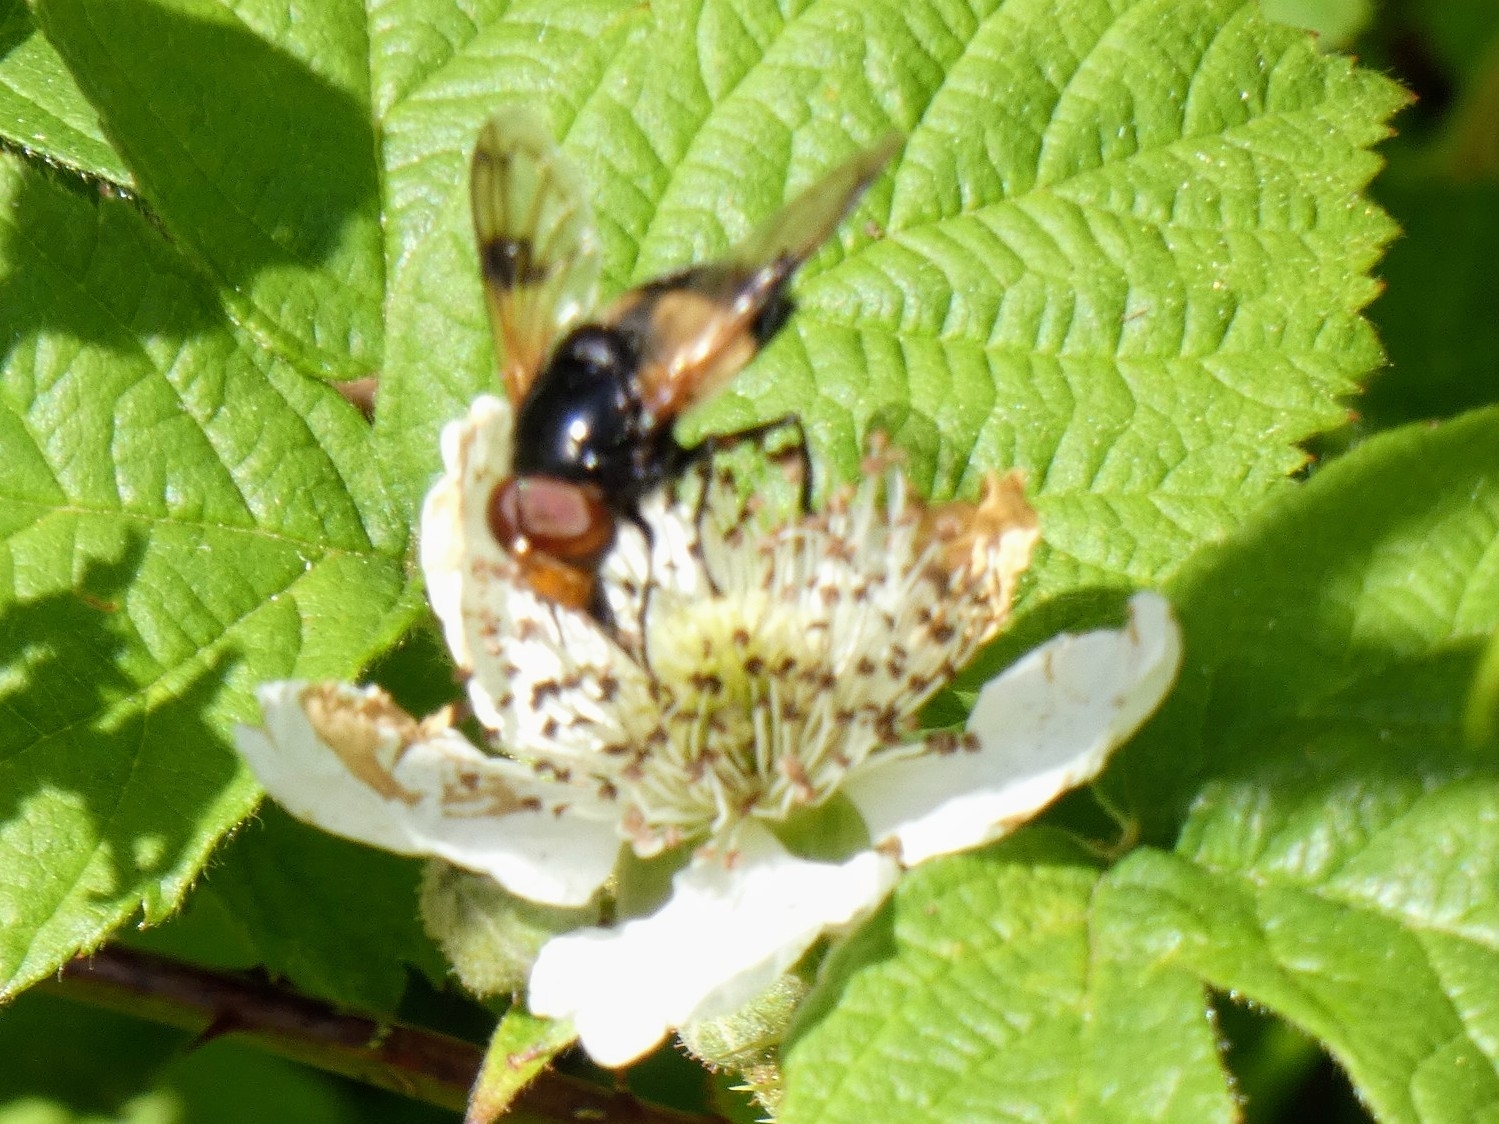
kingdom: Animalia
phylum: Arthropoda
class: Insecta
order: Diptera
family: Syrphidae
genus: Volucella
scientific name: Volucella pellucens
